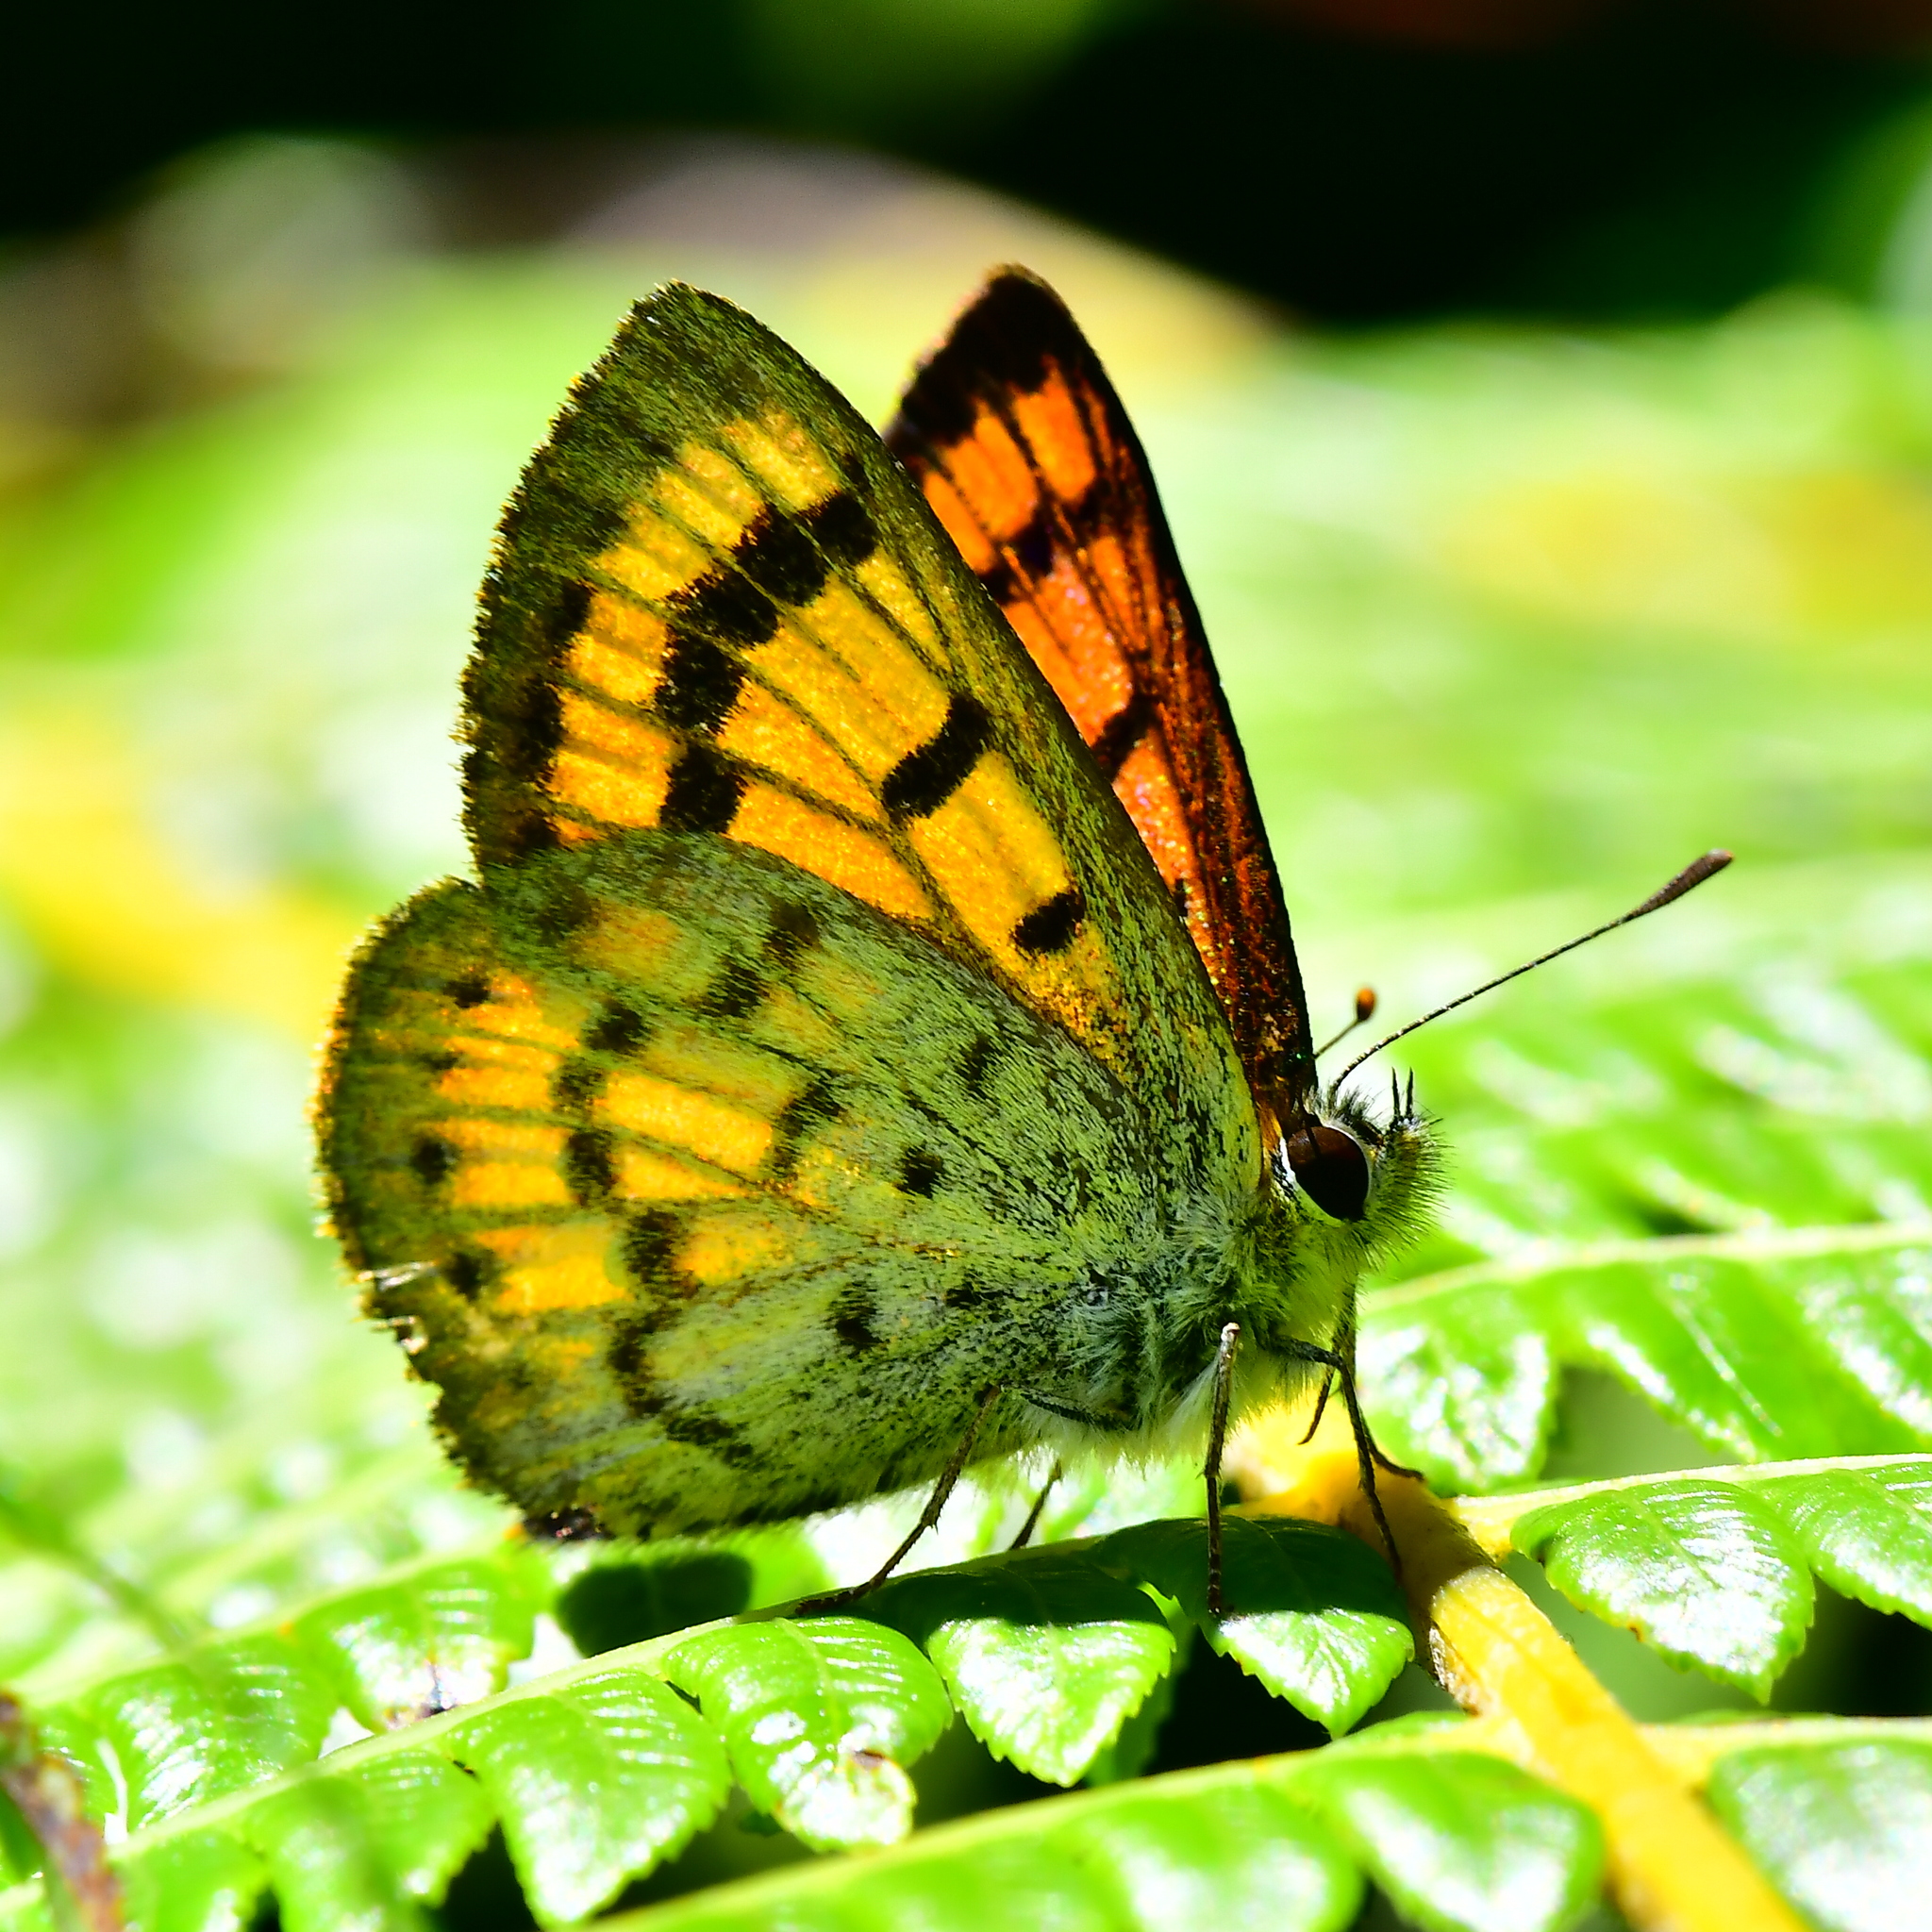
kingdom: Animalia
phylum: Arthropoda
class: Insecta
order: Lepidoptera
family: Lycaenidae
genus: Lycaena
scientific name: Lycaena salustius
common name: North island coastal copper
